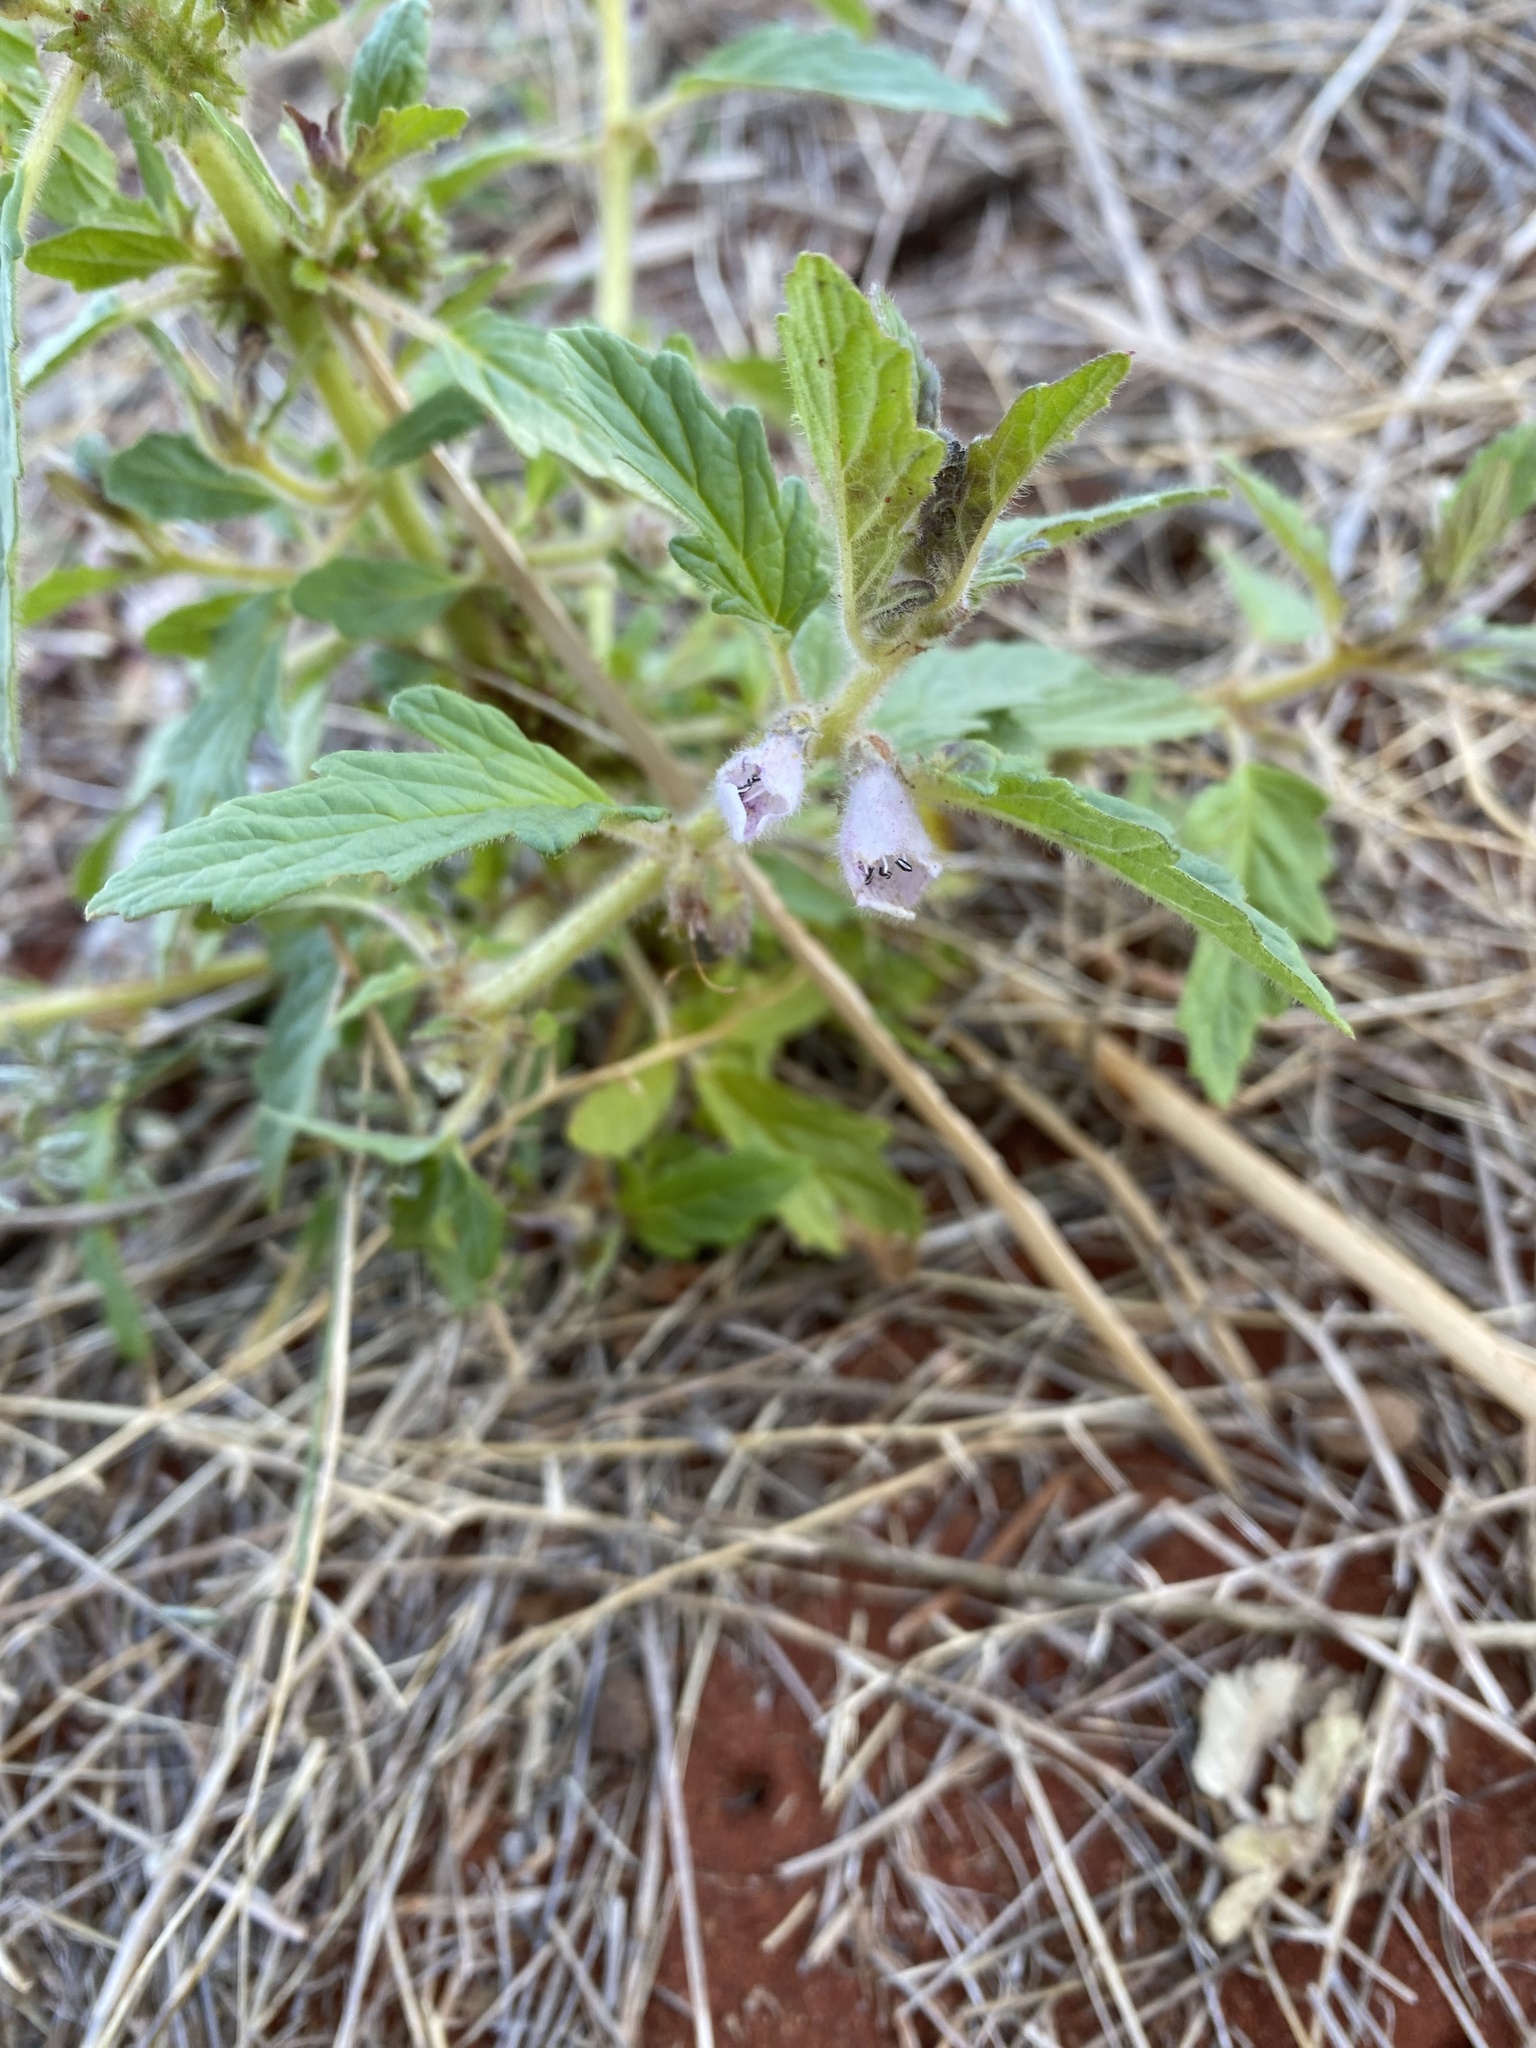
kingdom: Plantae
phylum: Tracheophyta
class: Magnoliopsida
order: Lamiales
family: Pedaliaceae
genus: Josephinia
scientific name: Josephinia eugeniae
